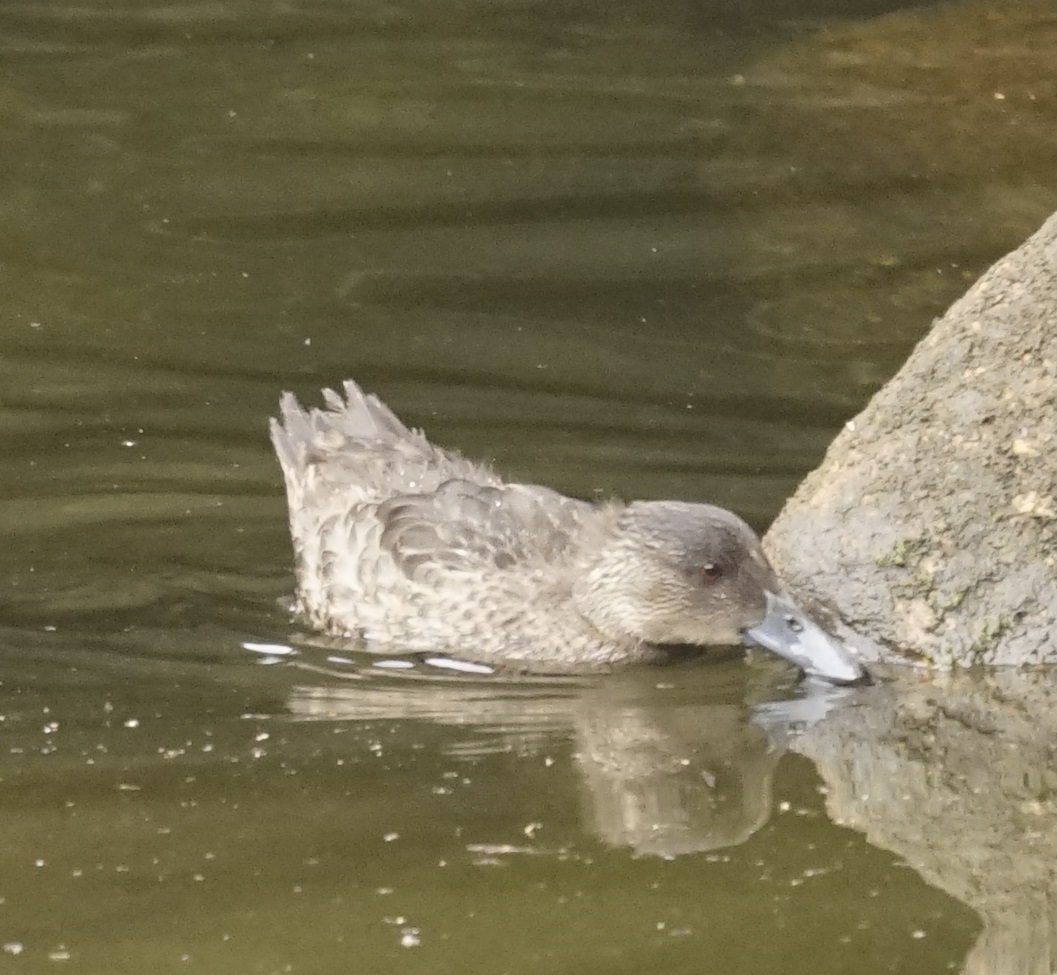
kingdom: Animalia
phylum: Chordata
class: Aves
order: Anseriformes
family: Anatidae
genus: Anas
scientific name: Anas castanea
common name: Chestnut teal
